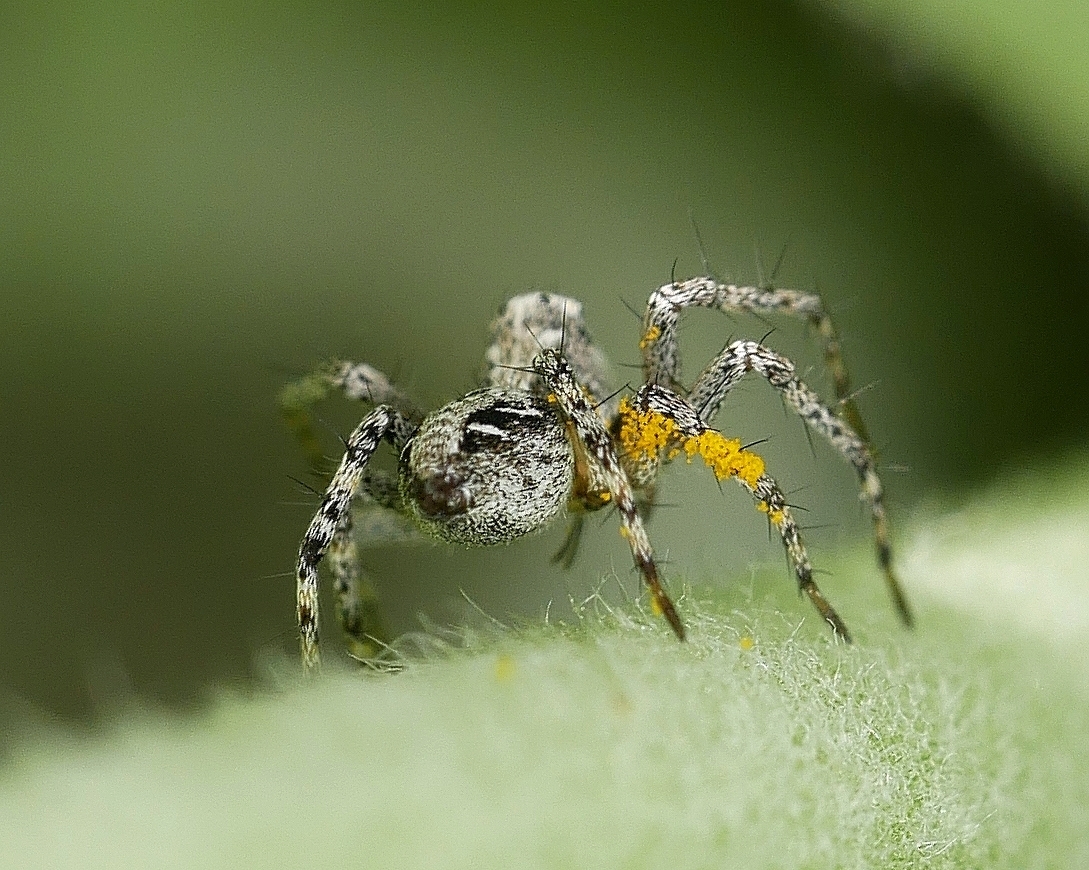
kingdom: Animalia
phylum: Arthropoda
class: Arachnida
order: Araneae
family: Oxyopidae
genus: Oxyopes
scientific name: Oxyopes scalaris
